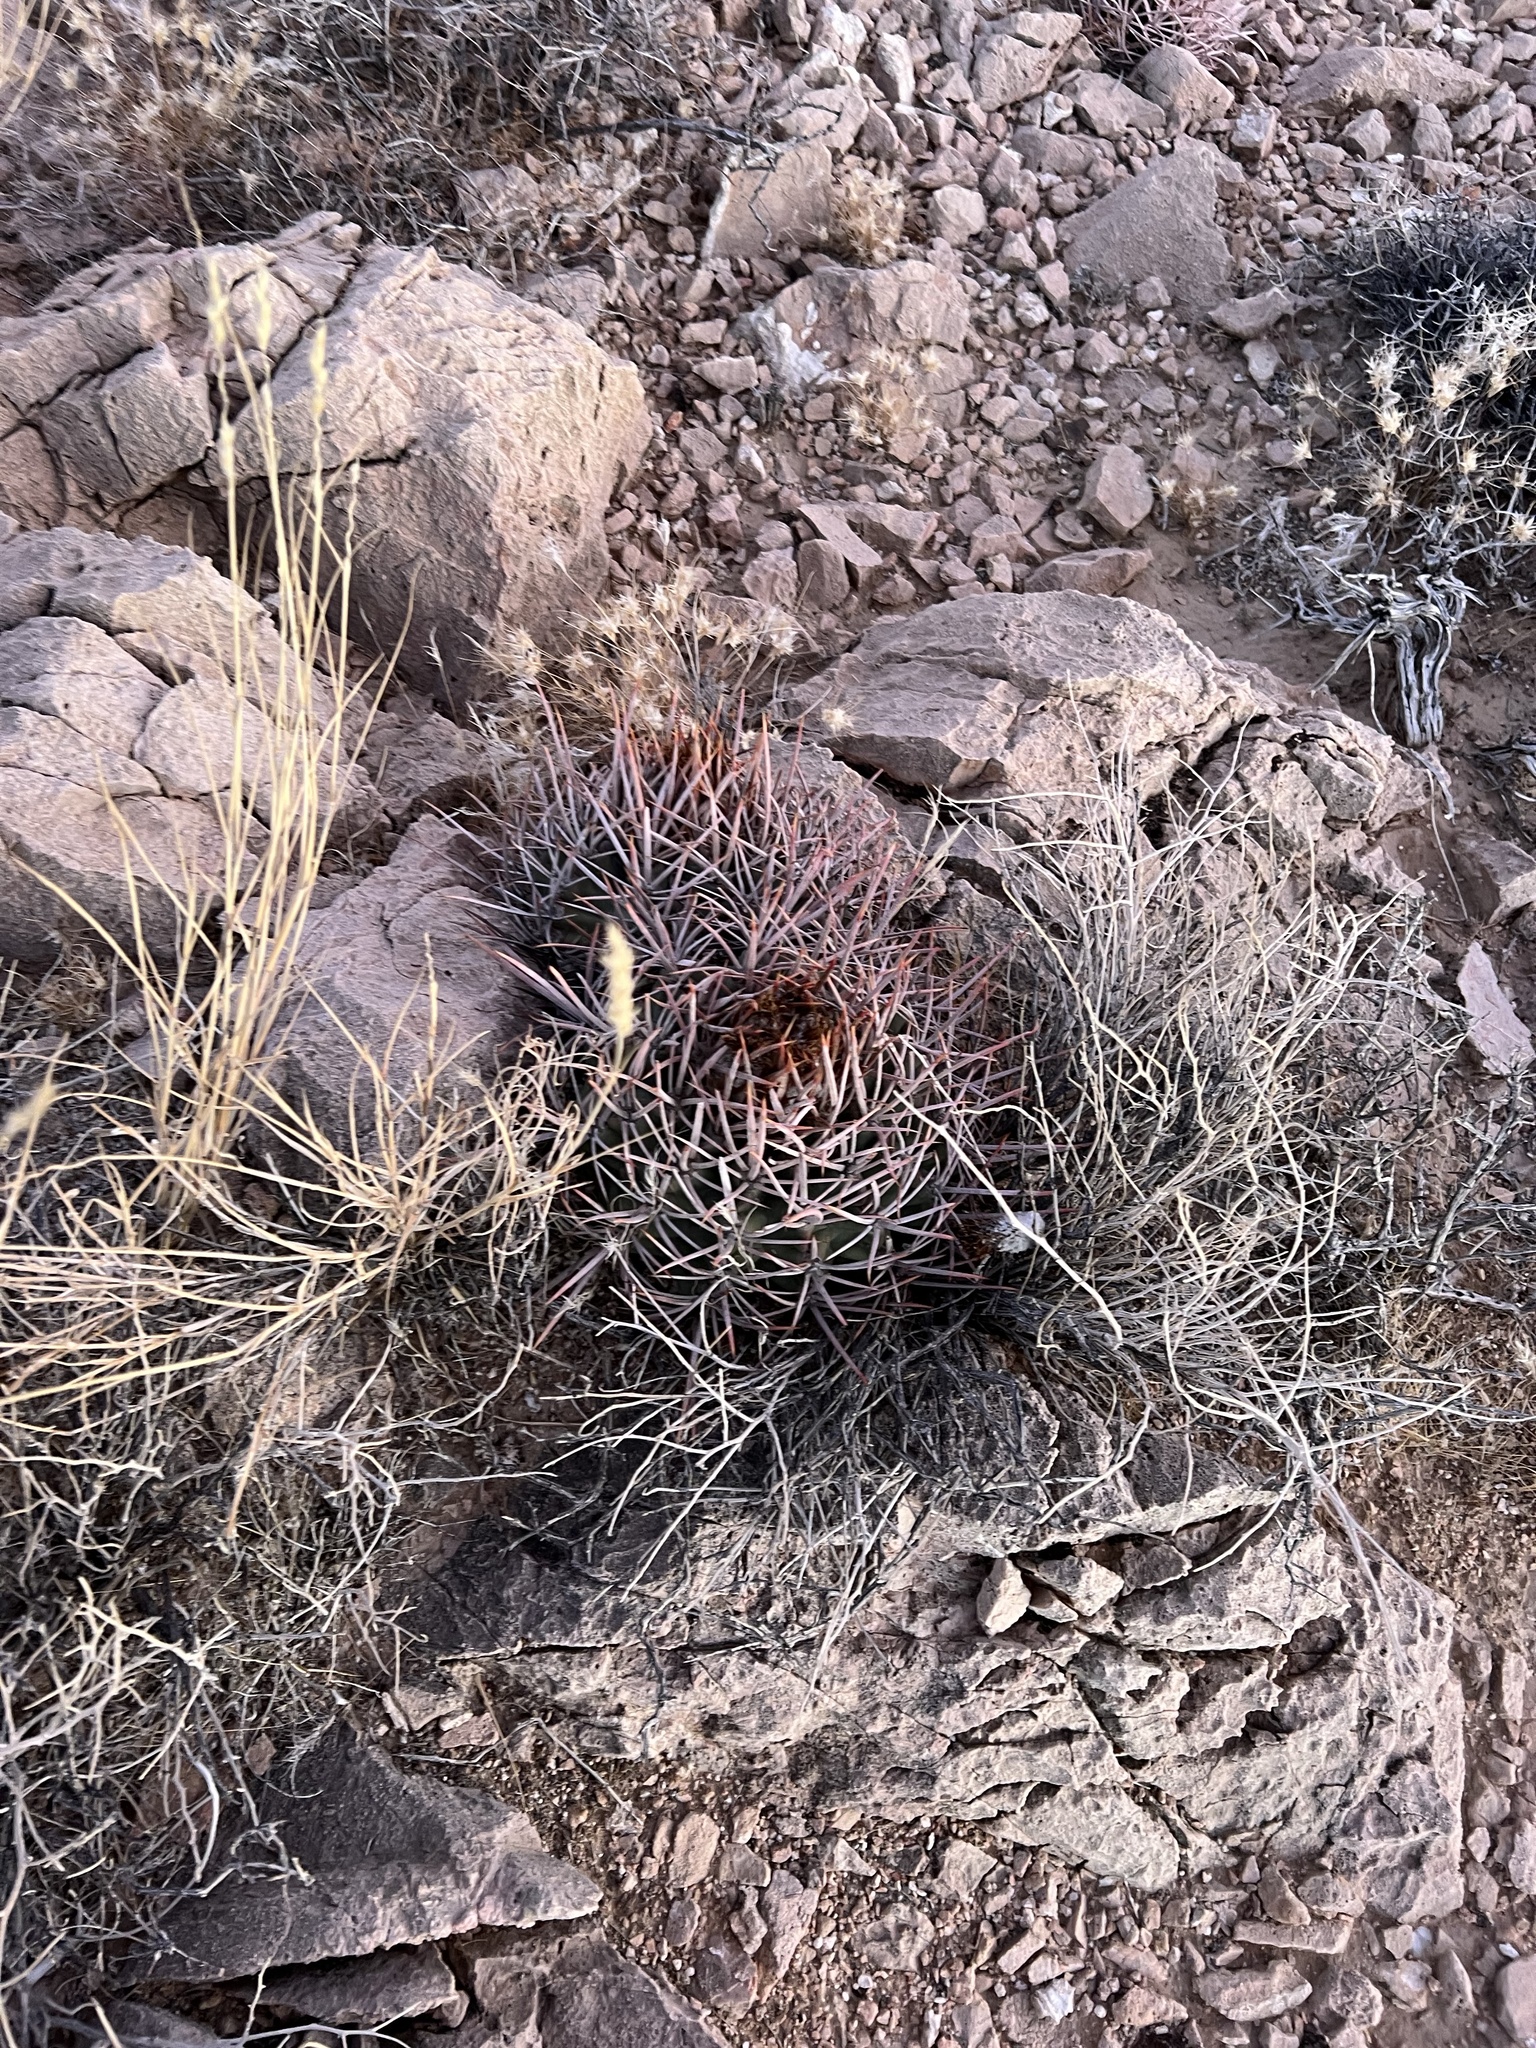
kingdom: Plantae
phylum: Tracheophyta
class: Magnoliopsida
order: Caryophyllales
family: Cactaceae
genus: Echinocactus
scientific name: Echinocactus polycephalus
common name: Cottontop cactus
